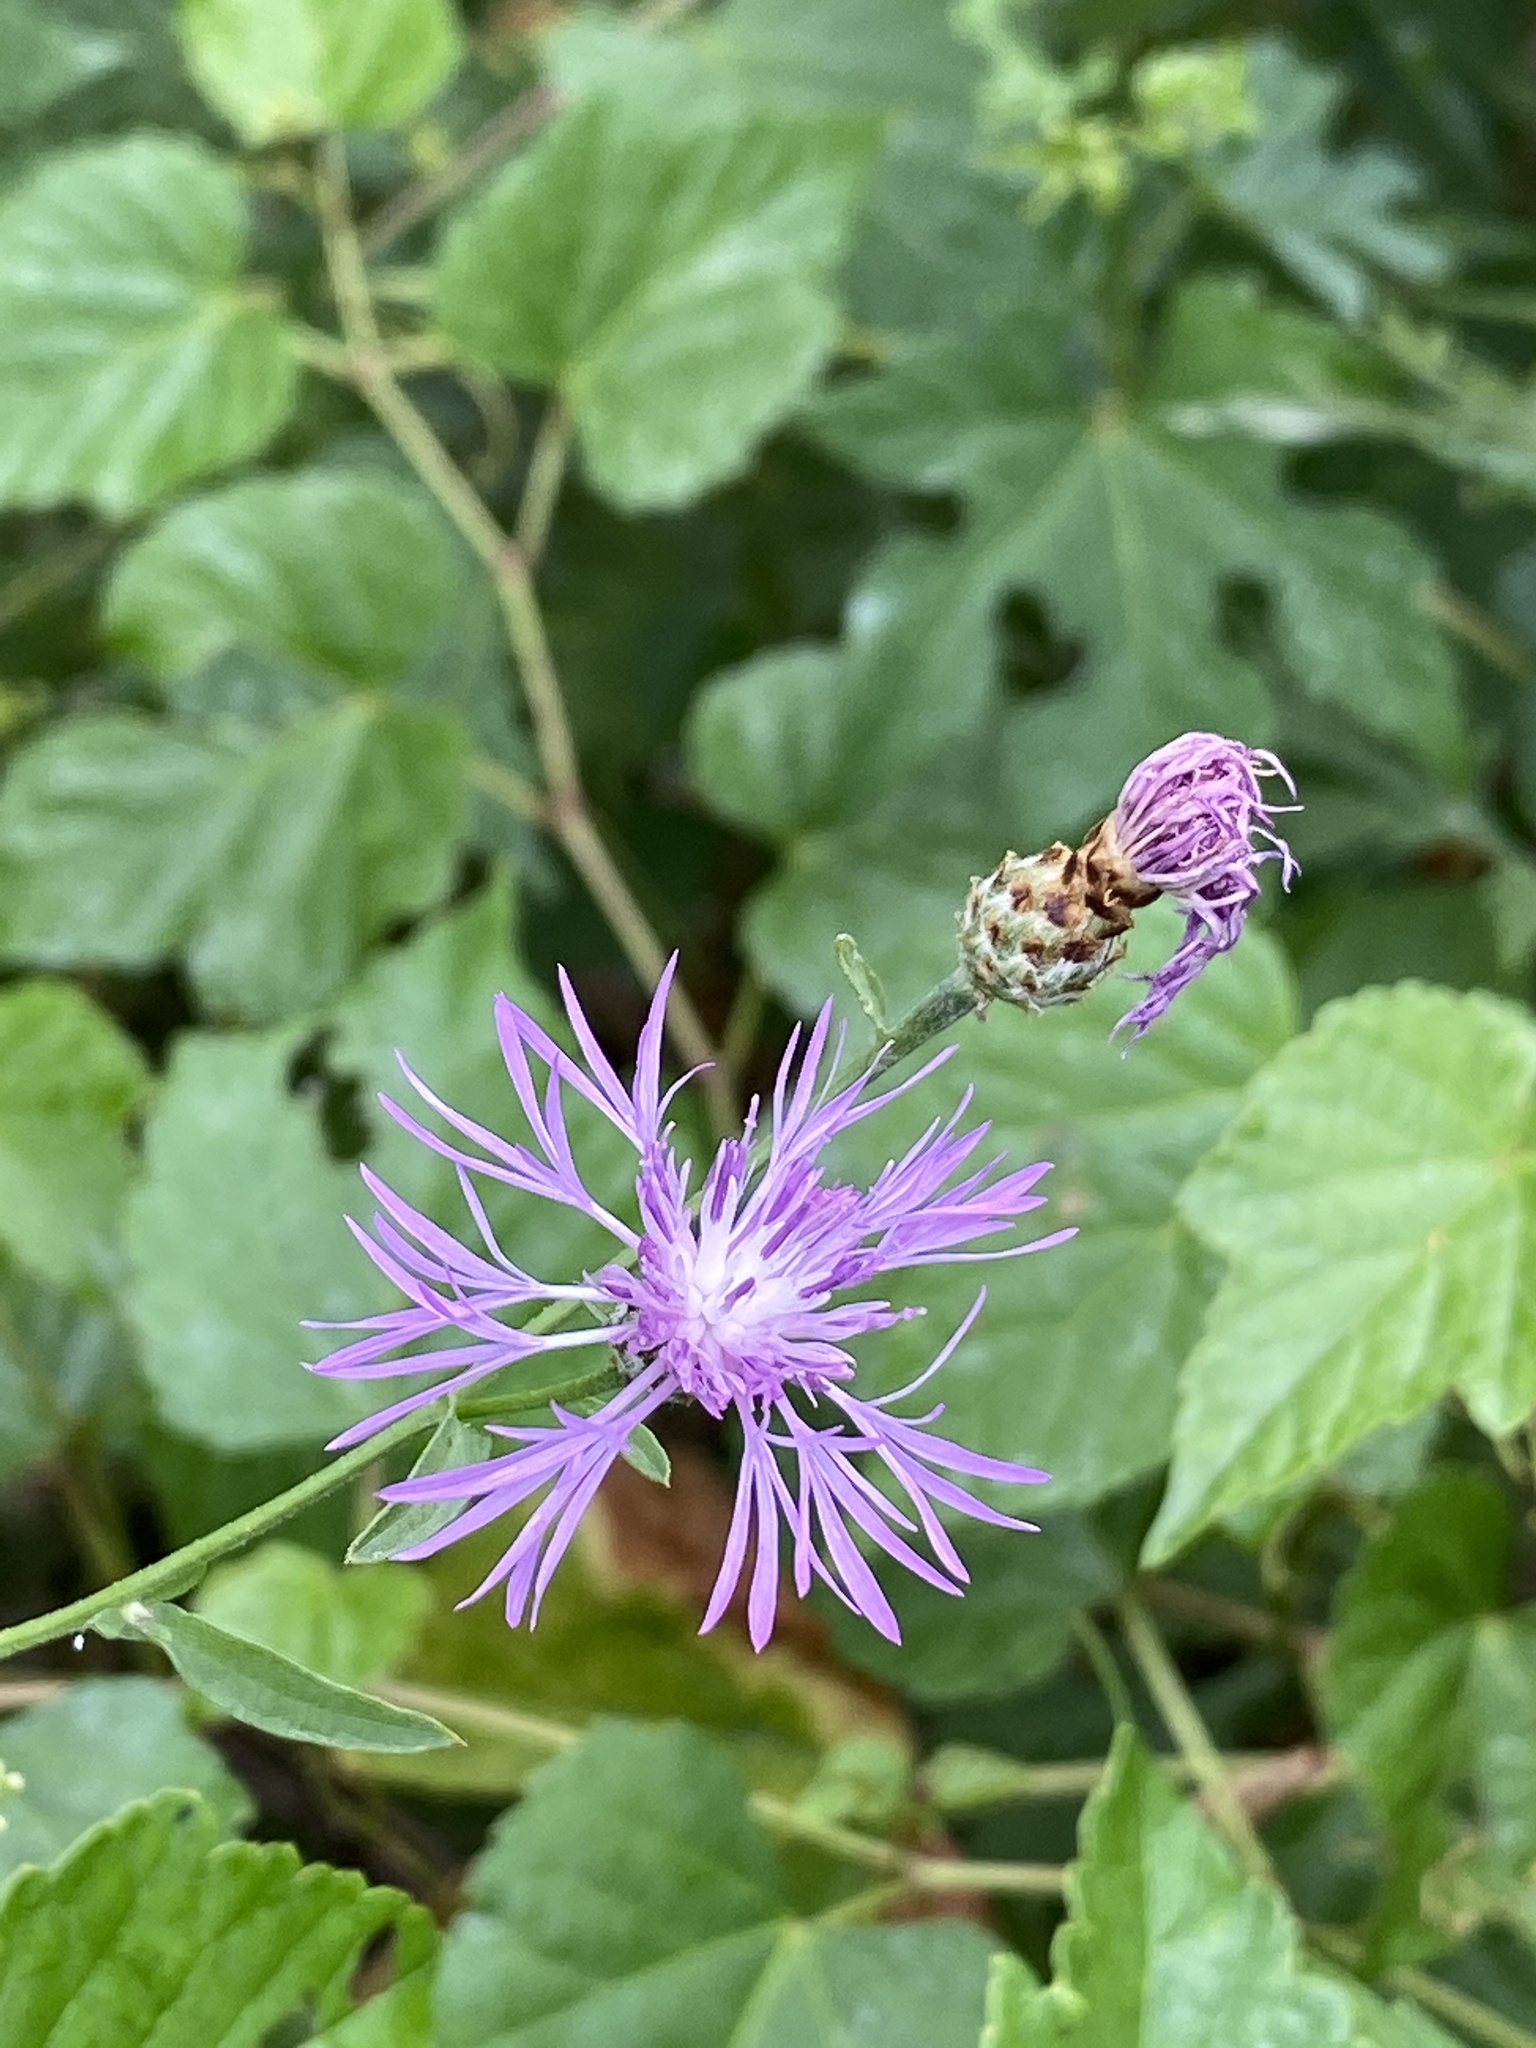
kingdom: Plantae
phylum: Tracheophyta
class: Magnoliopsida
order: Asterales
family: Asteraceae
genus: Centaurea
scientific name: Centaurea nigrescens
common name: Tyrol knapweed
